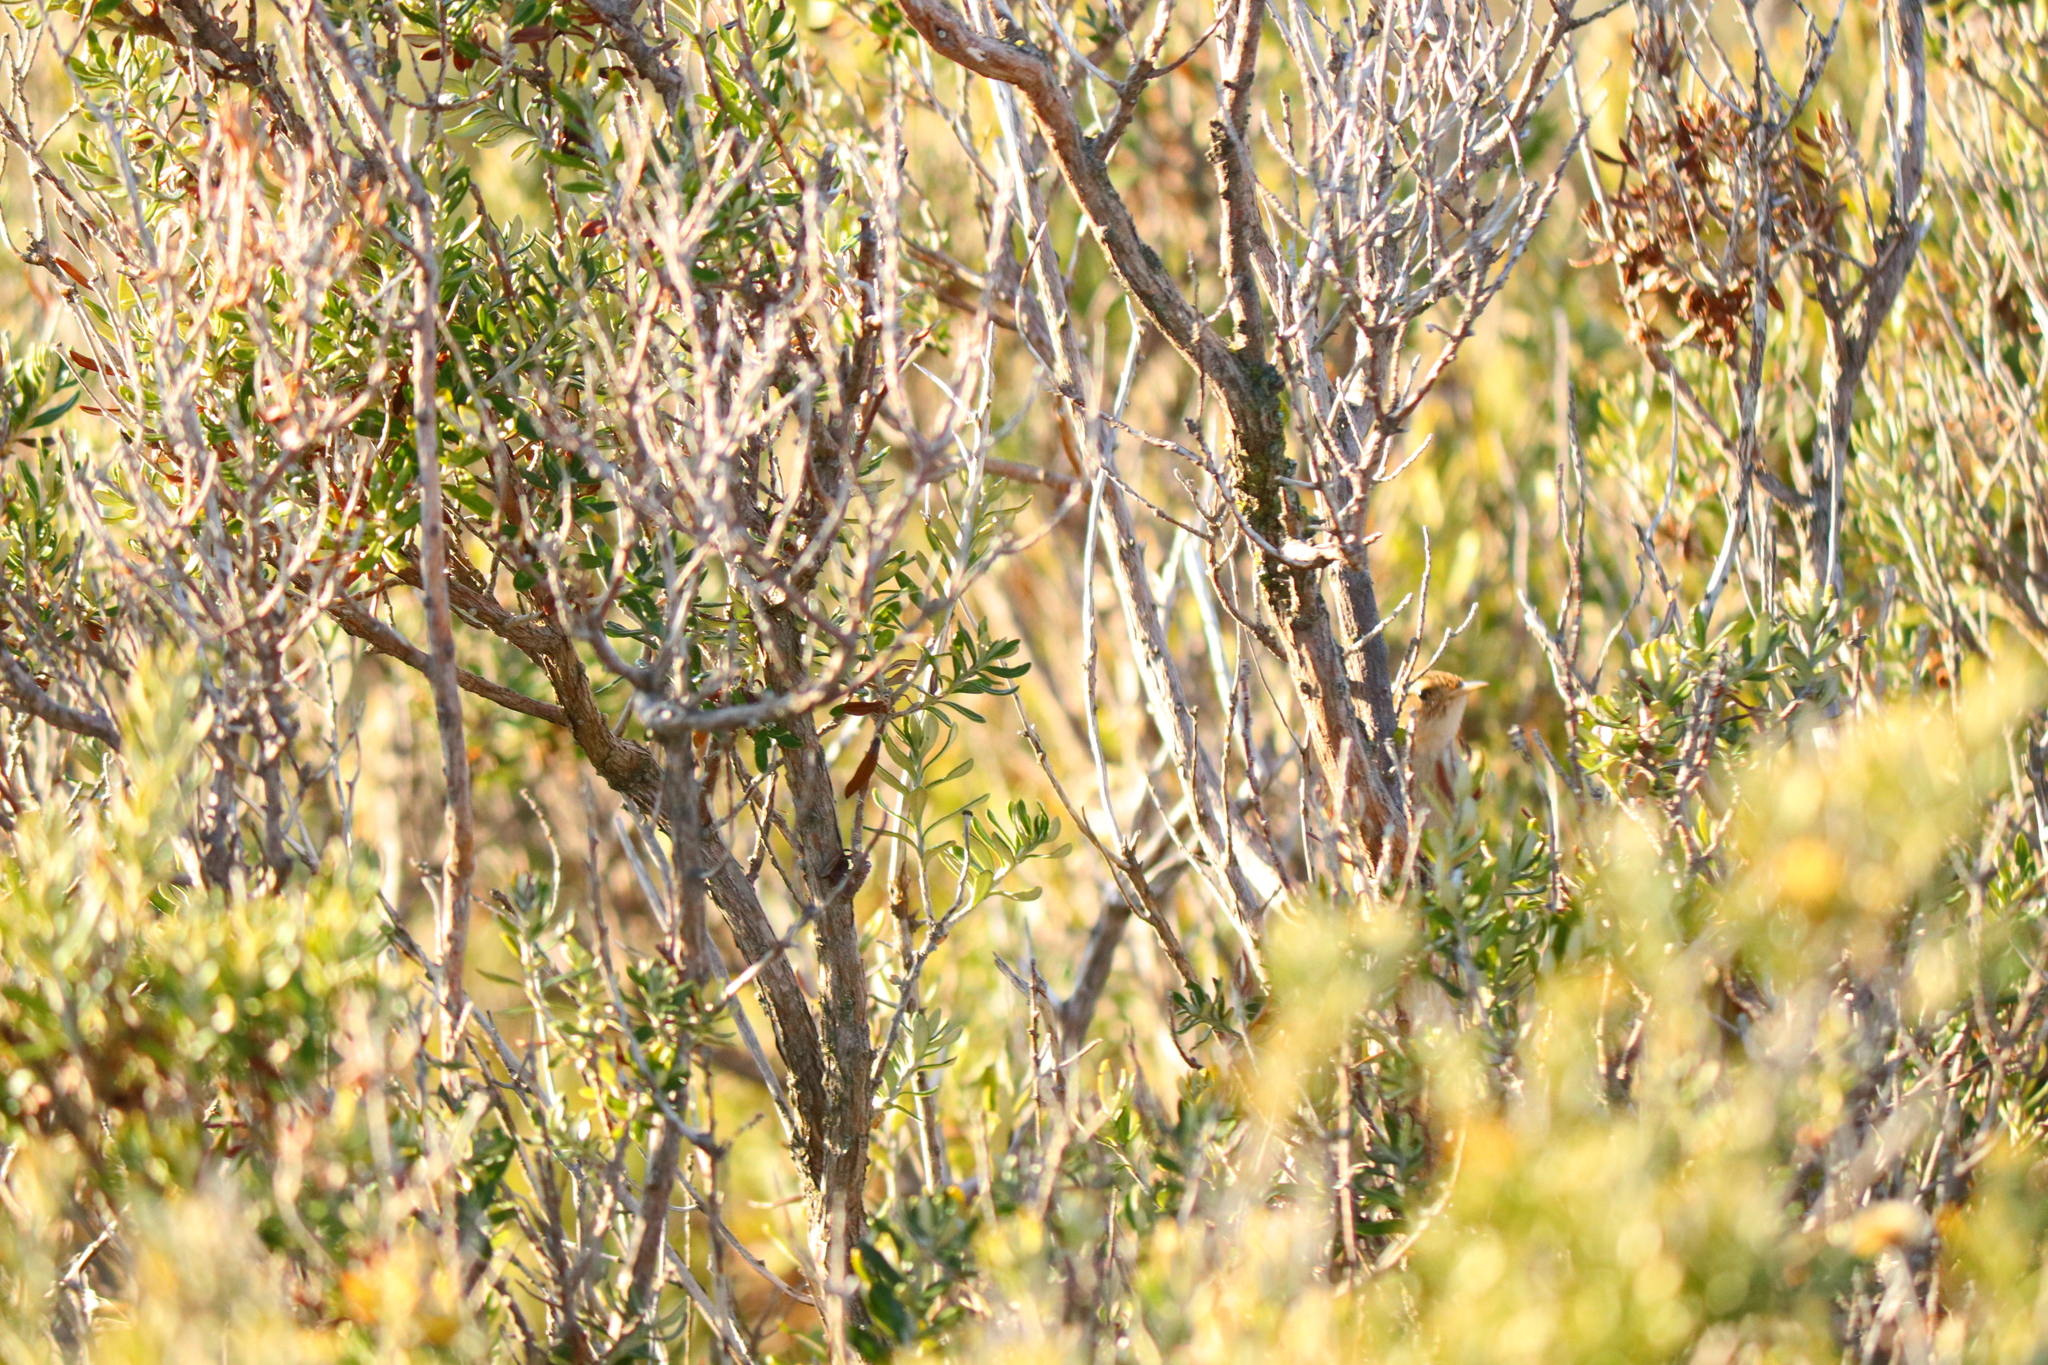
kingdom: Animalia
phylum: Chordata
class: Aves
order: Passeriformes
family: Troglodytidae
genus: Cistothorus
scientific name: Cistothorus platensis
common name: Sedge wren
